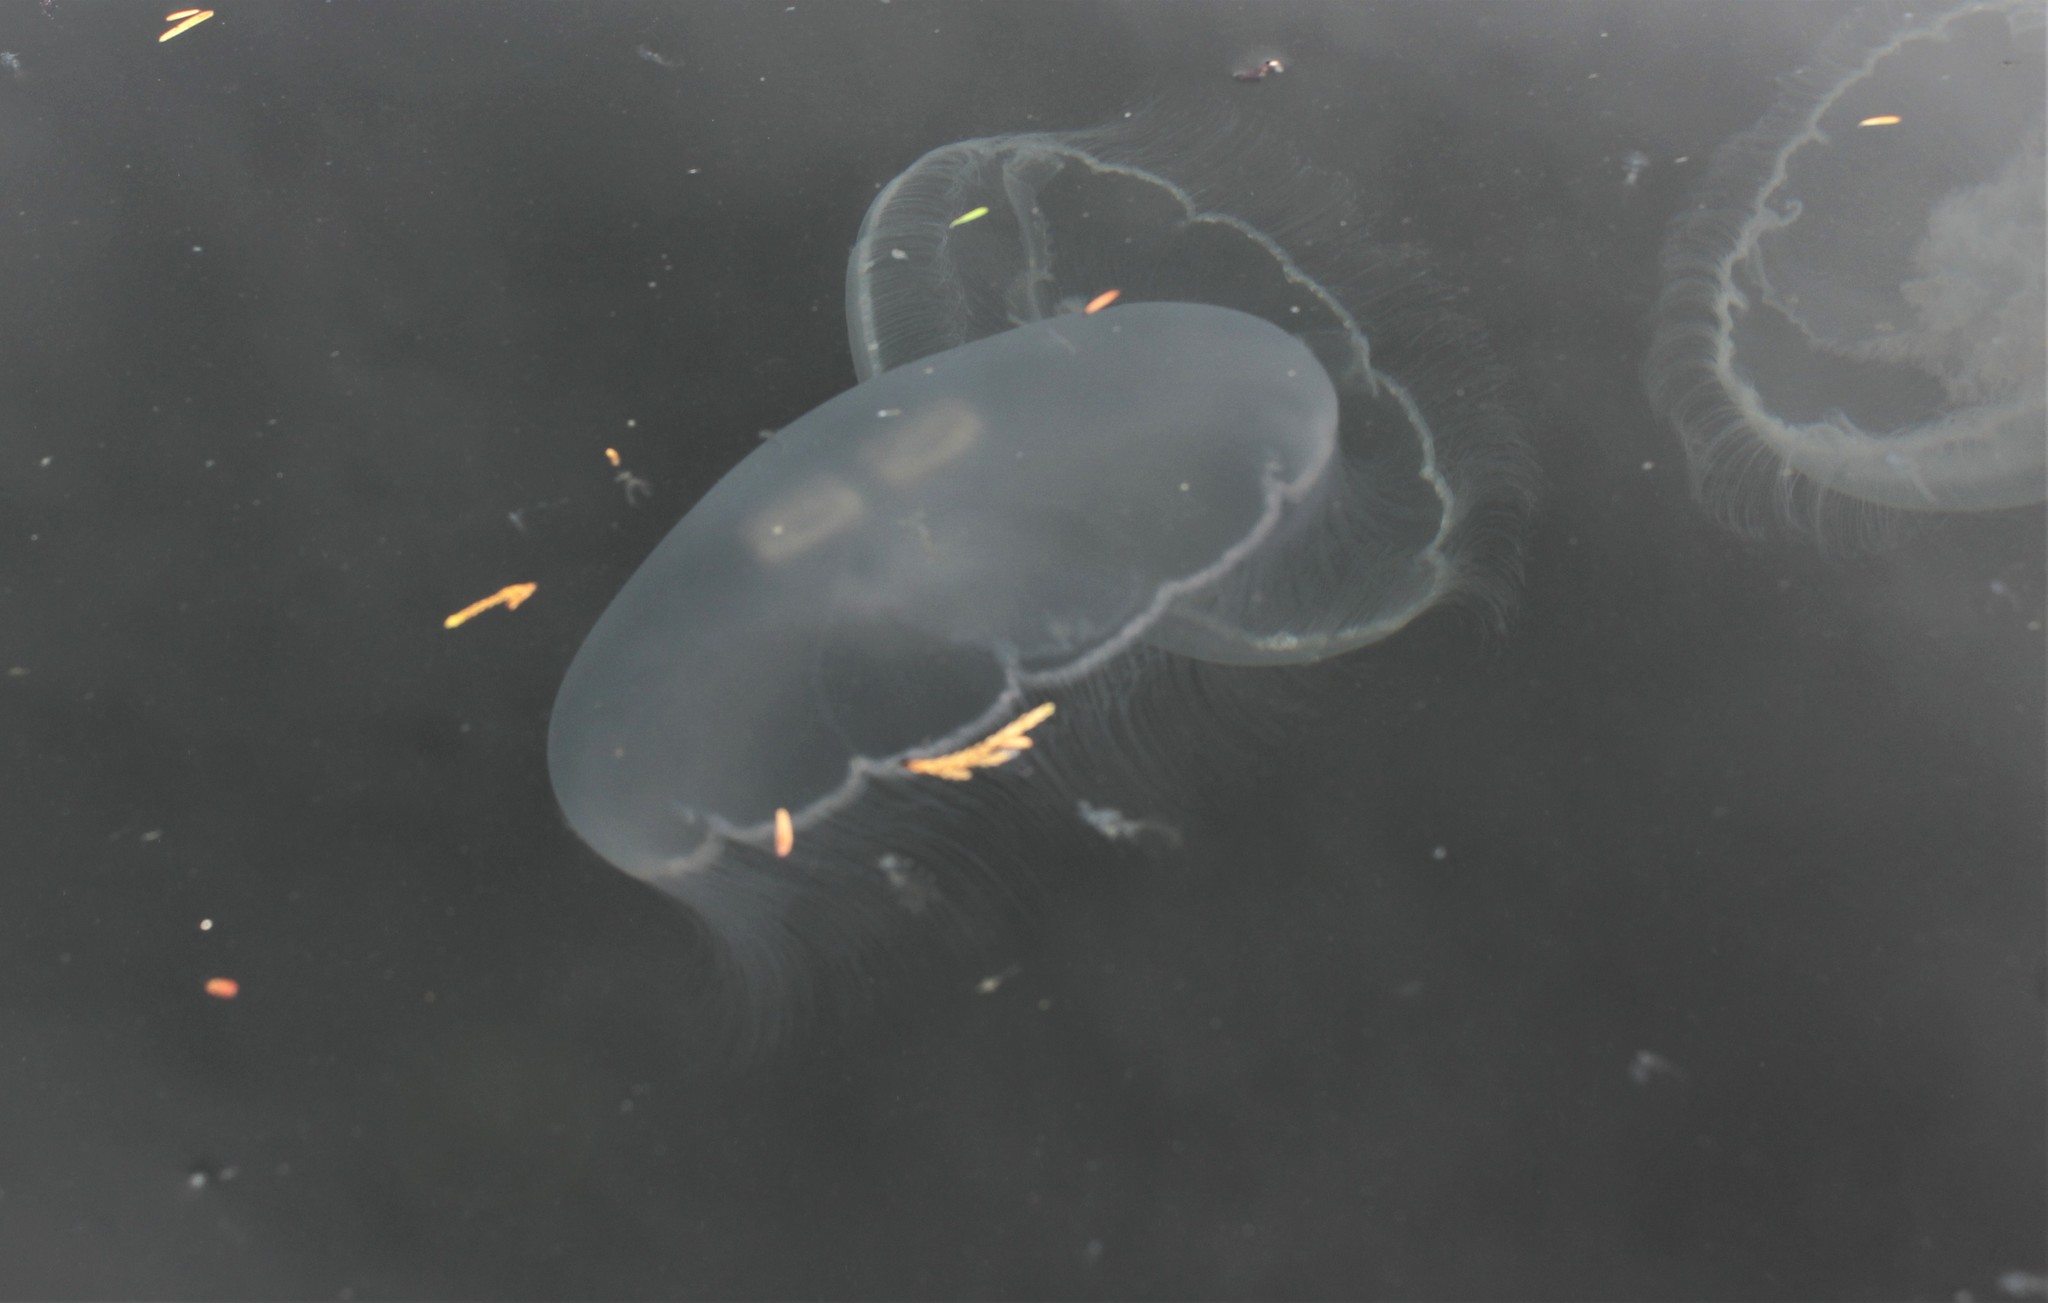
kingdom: Animalia
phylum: Cnidaria
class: Scyphozoa
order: Semaeostomeae
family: Ulmaridae
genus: Aurelia
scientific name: Aurelia labiata
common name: Pacific moon jelly
